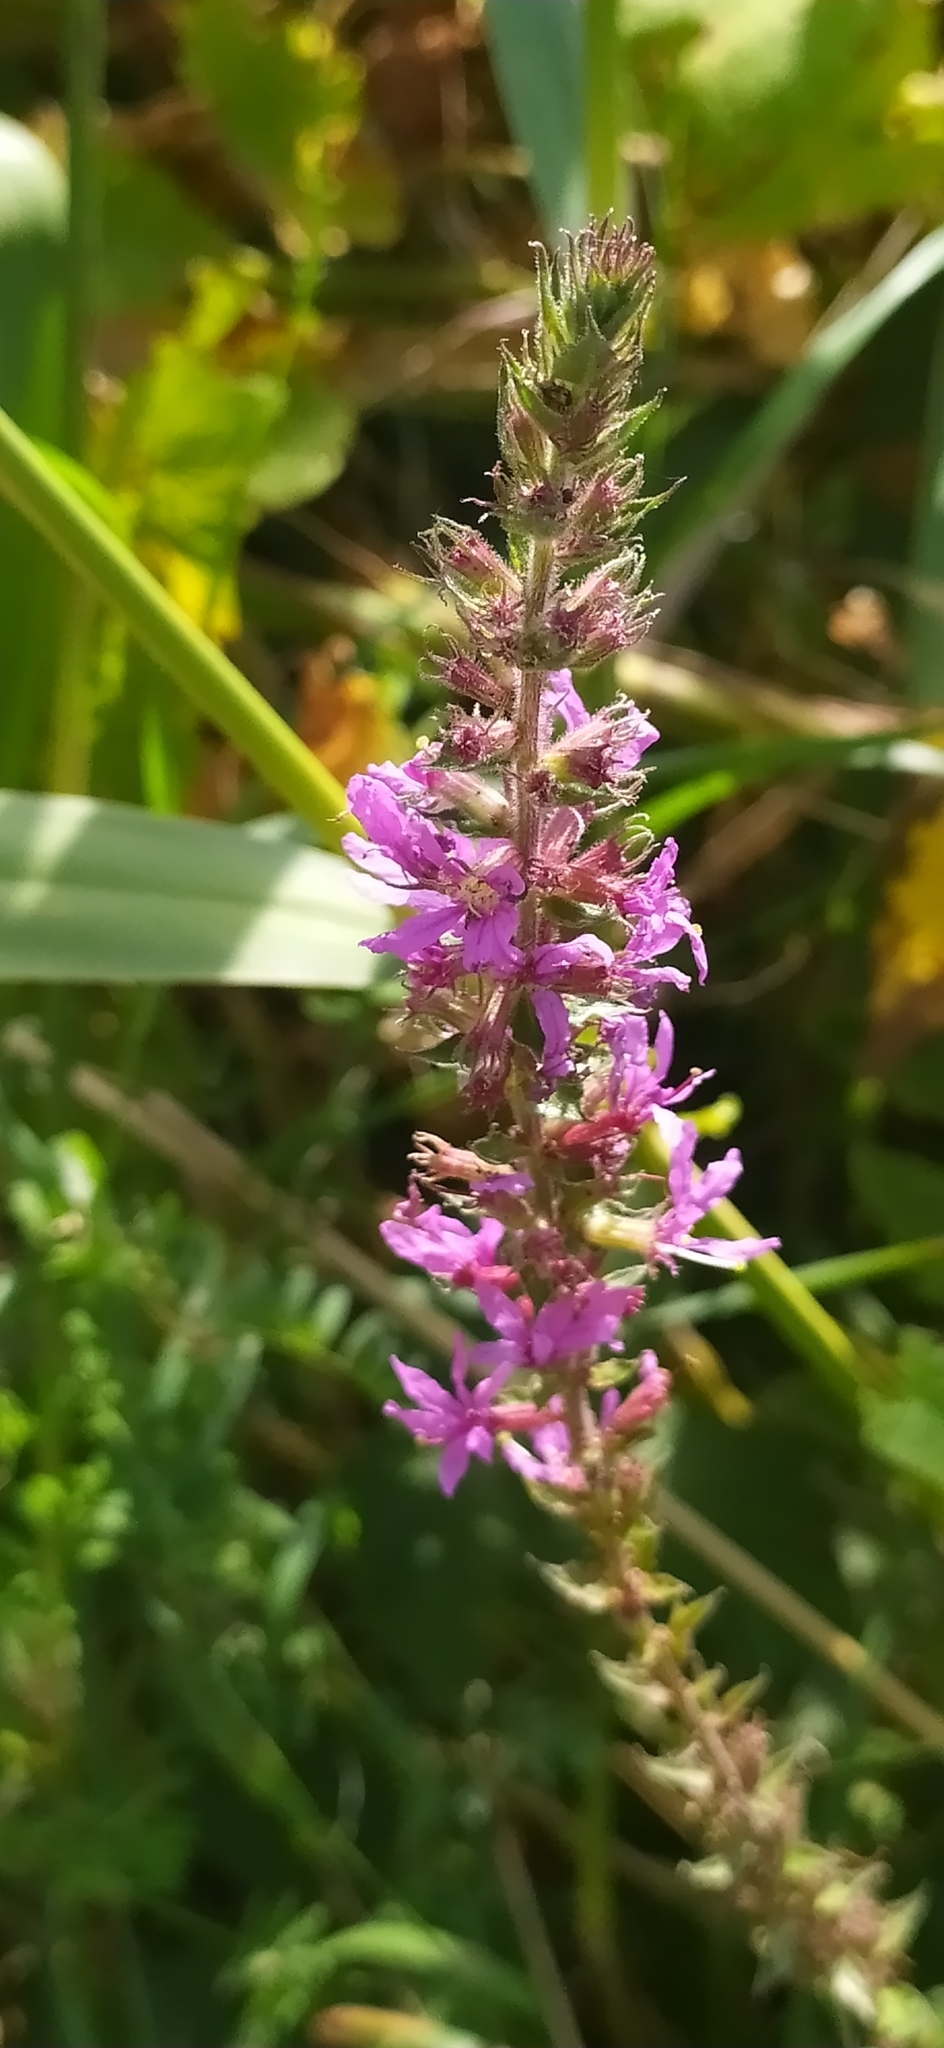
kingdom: Plantae
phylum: Tracheophyta
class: Magnoliopsida
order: Myrtales
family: Lythraceae
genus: Lythrum
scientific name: Lythrum salicaria
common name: Purple loosestrife
